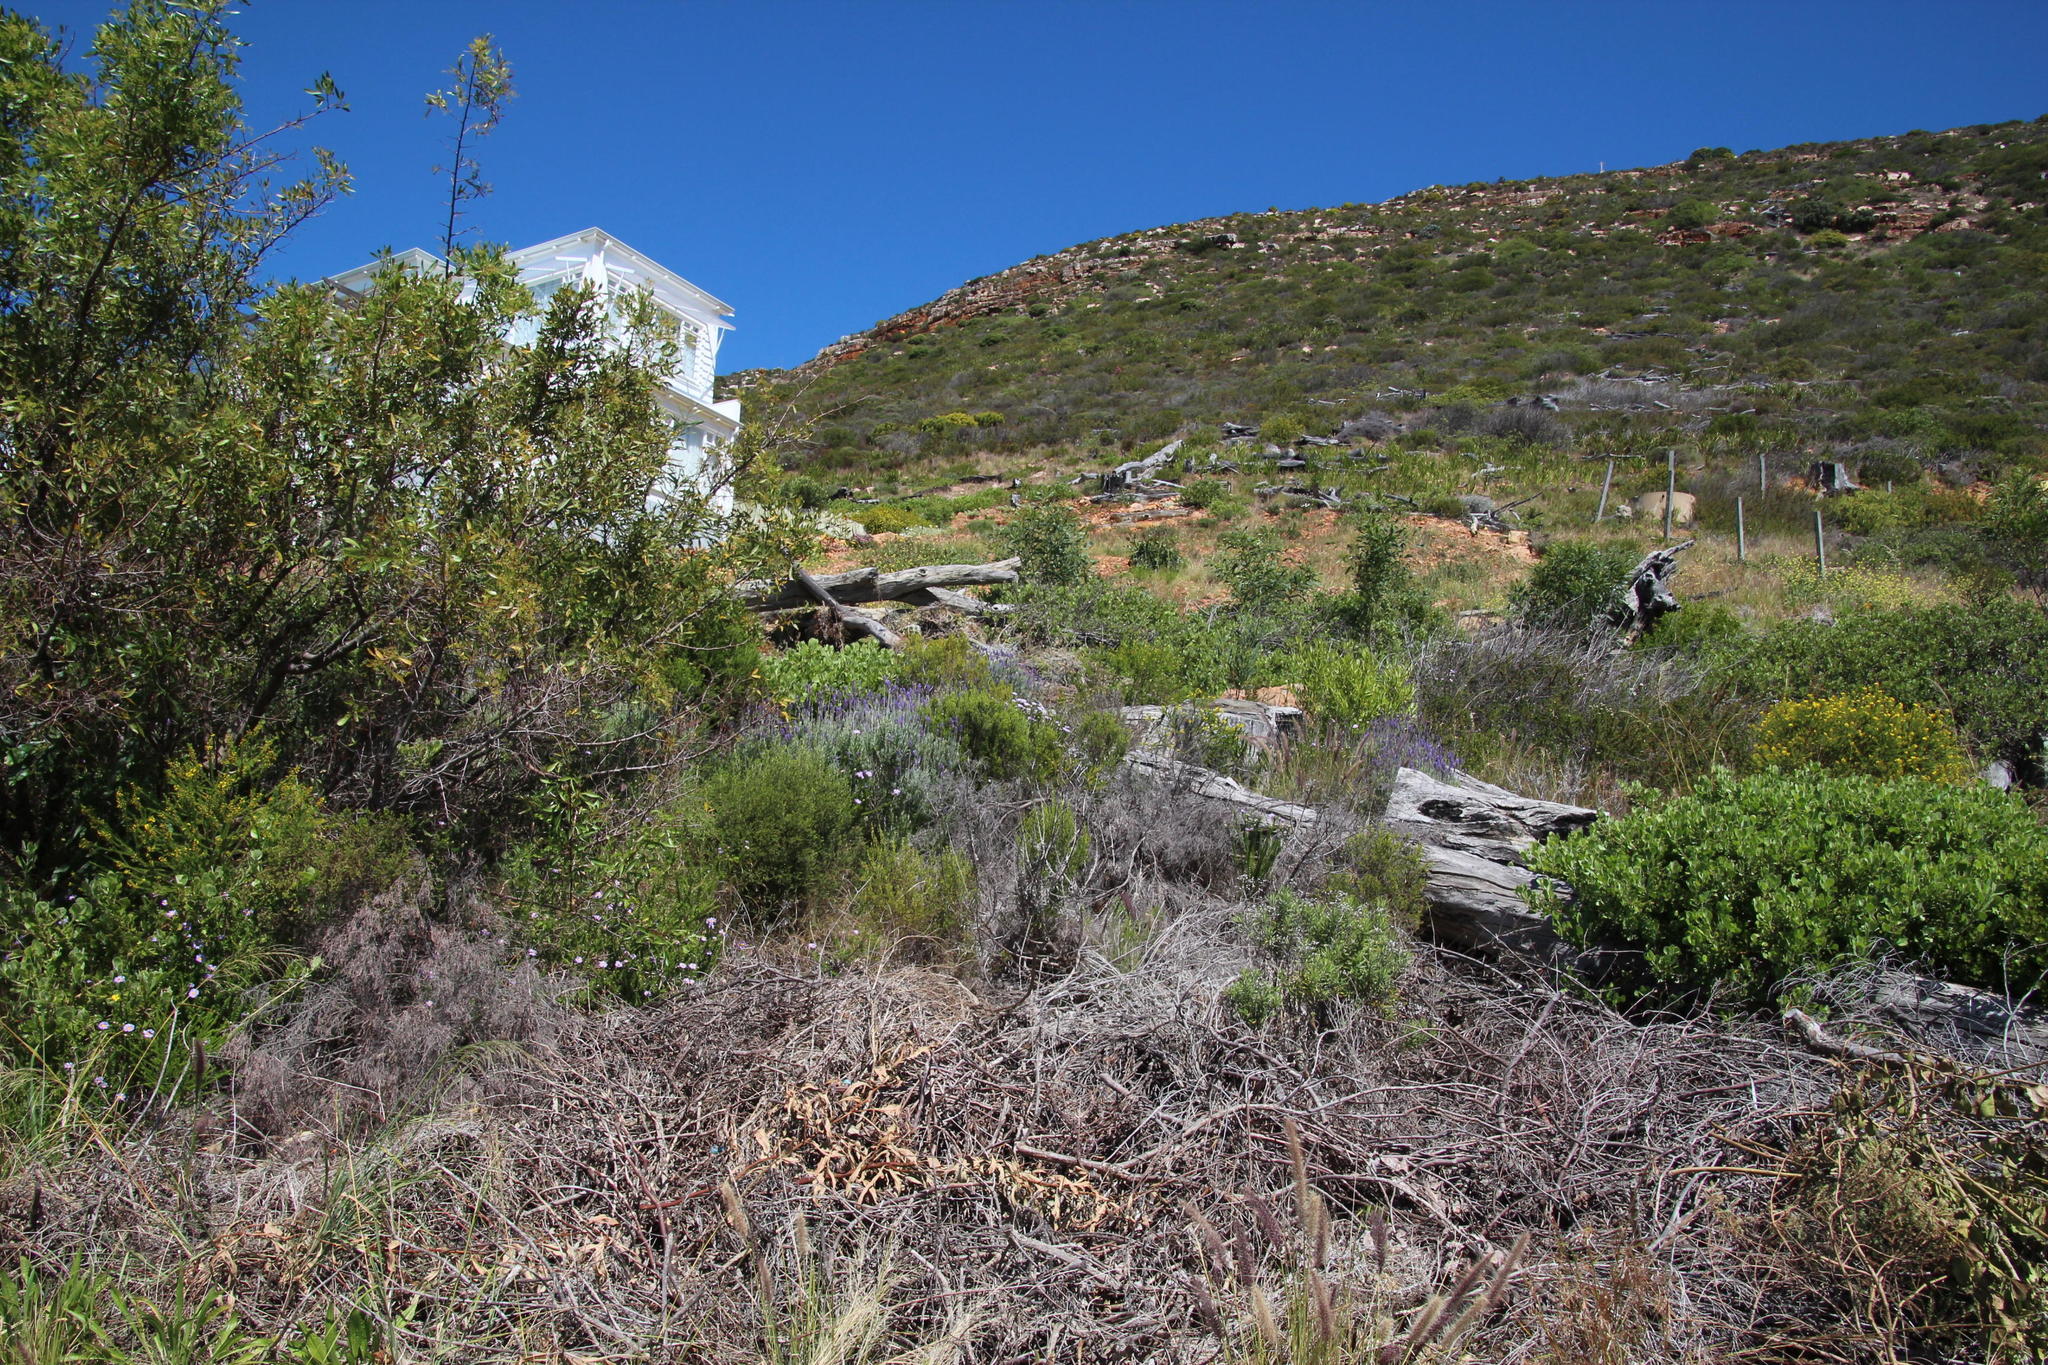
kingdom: Plantae
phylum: Tracheophyta
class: Magnoliopsida
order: Lamiales
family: Lamiaceae
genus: Lavandula
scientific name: Lavandula dentata
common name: French lavender
